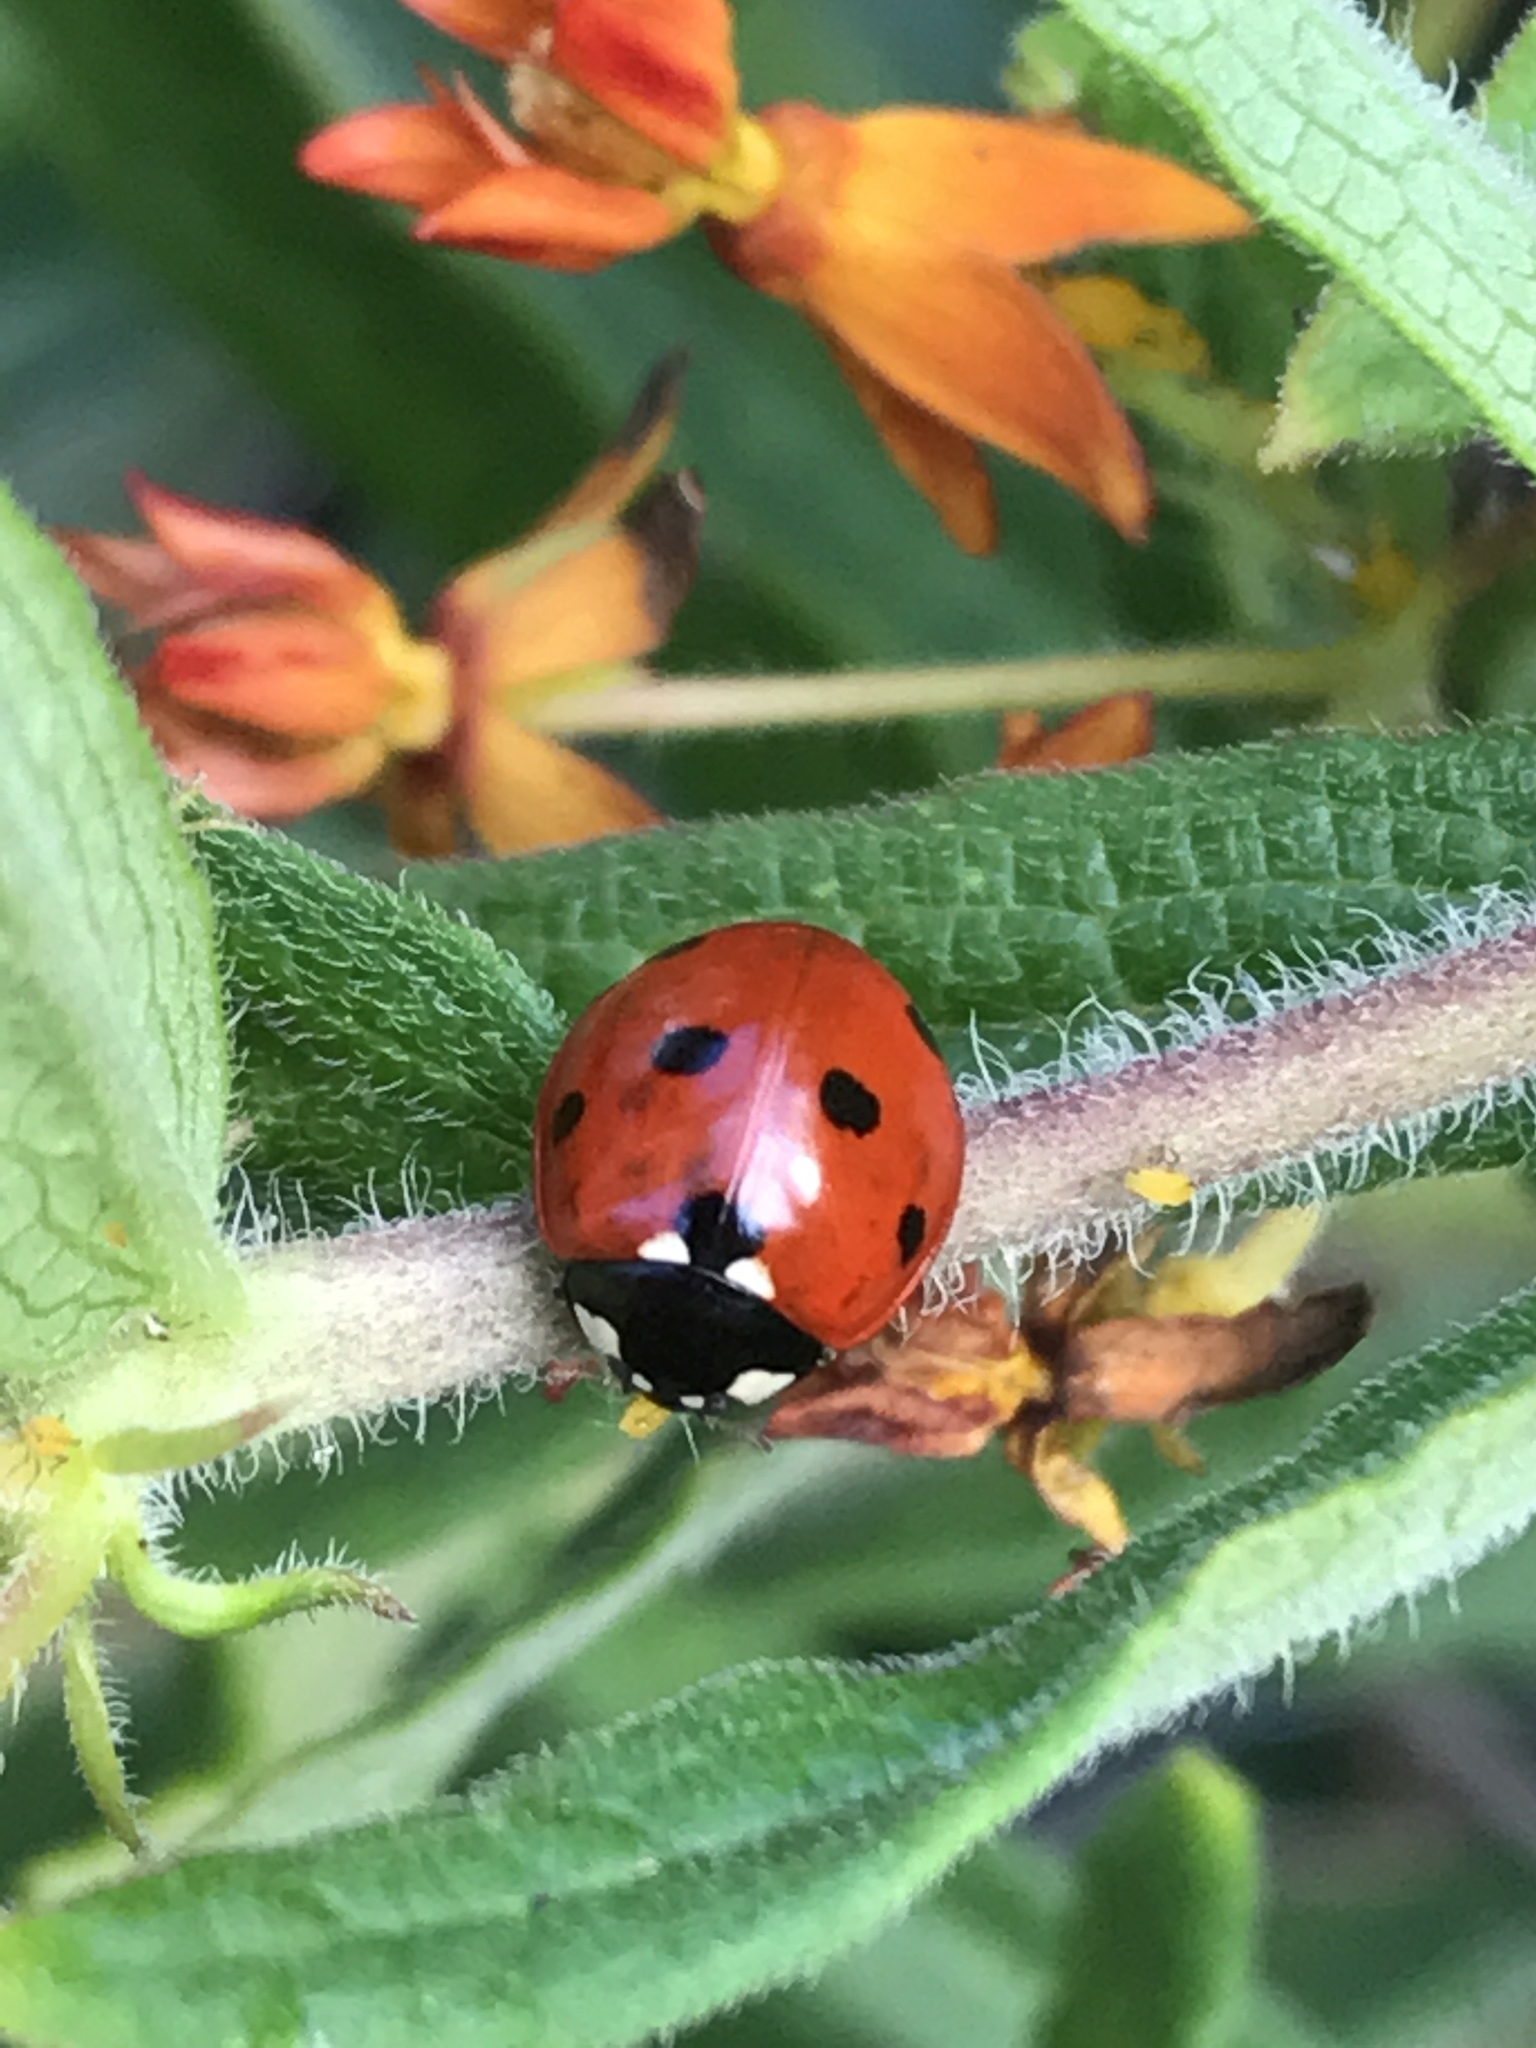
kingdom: Animalia
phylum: Arthropoda
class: Insecta
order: Coleoptera
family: Coccinellidae
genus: Coccinella
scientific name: Coccinella septempunctata
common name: Sevenspotted lady beetle
